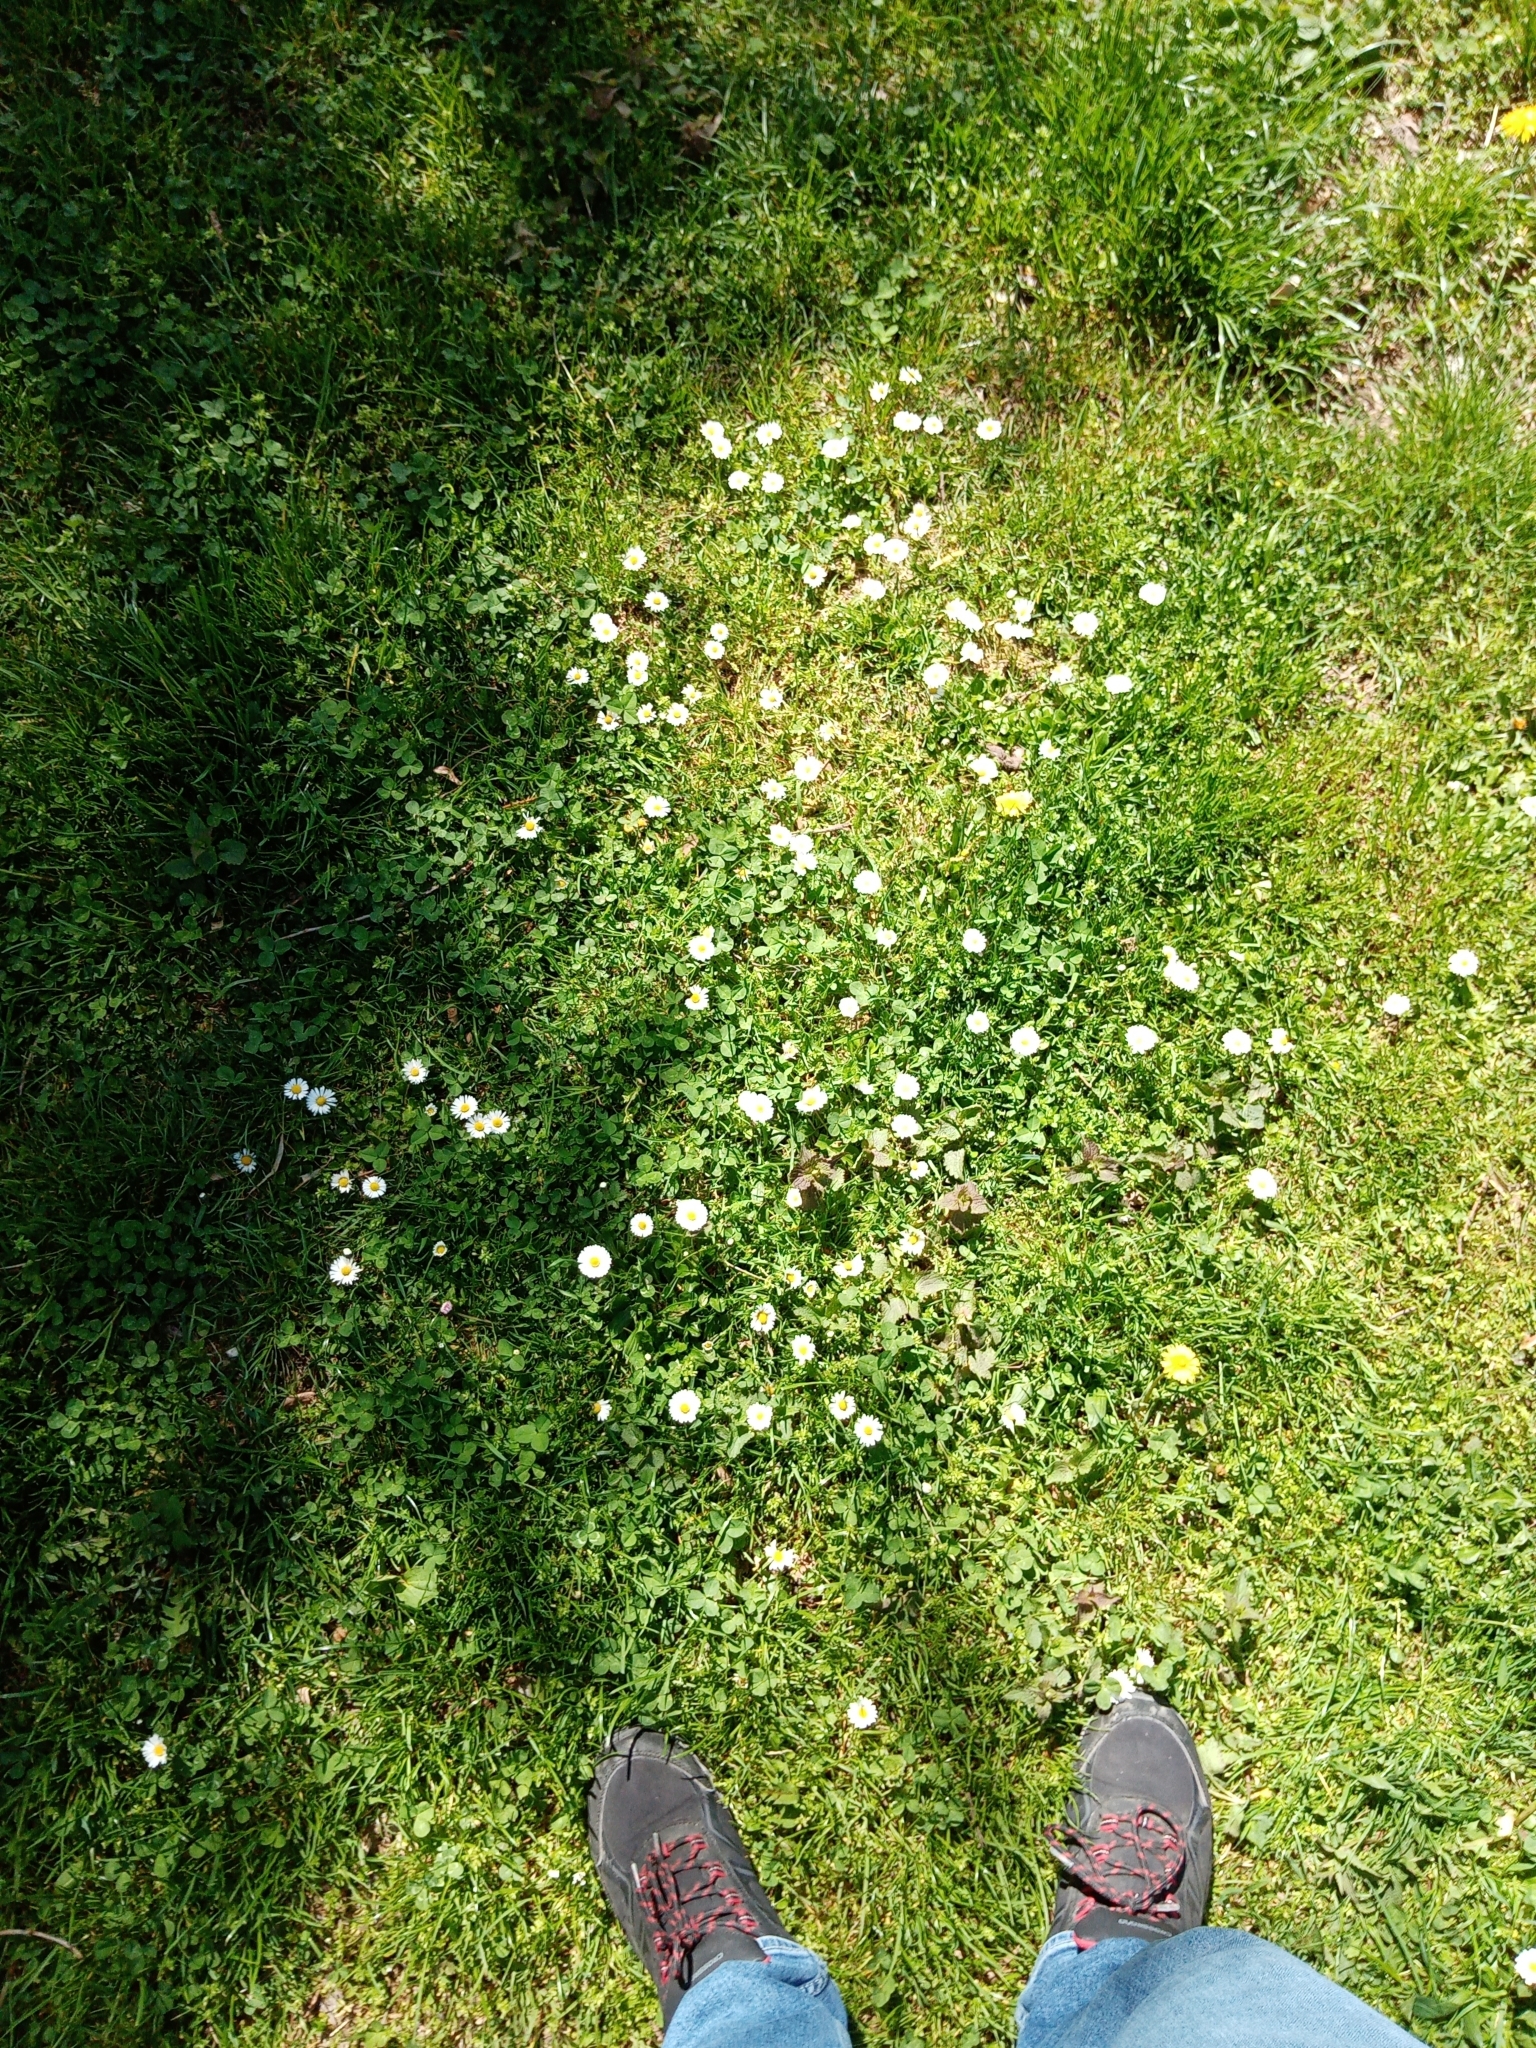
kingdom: Plantae
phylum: Tracheophyta
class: Magnoliopsida
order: Asterales
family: Asteraceae
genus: Bellis
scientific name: Bellis perennis
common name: Lawndaisy
